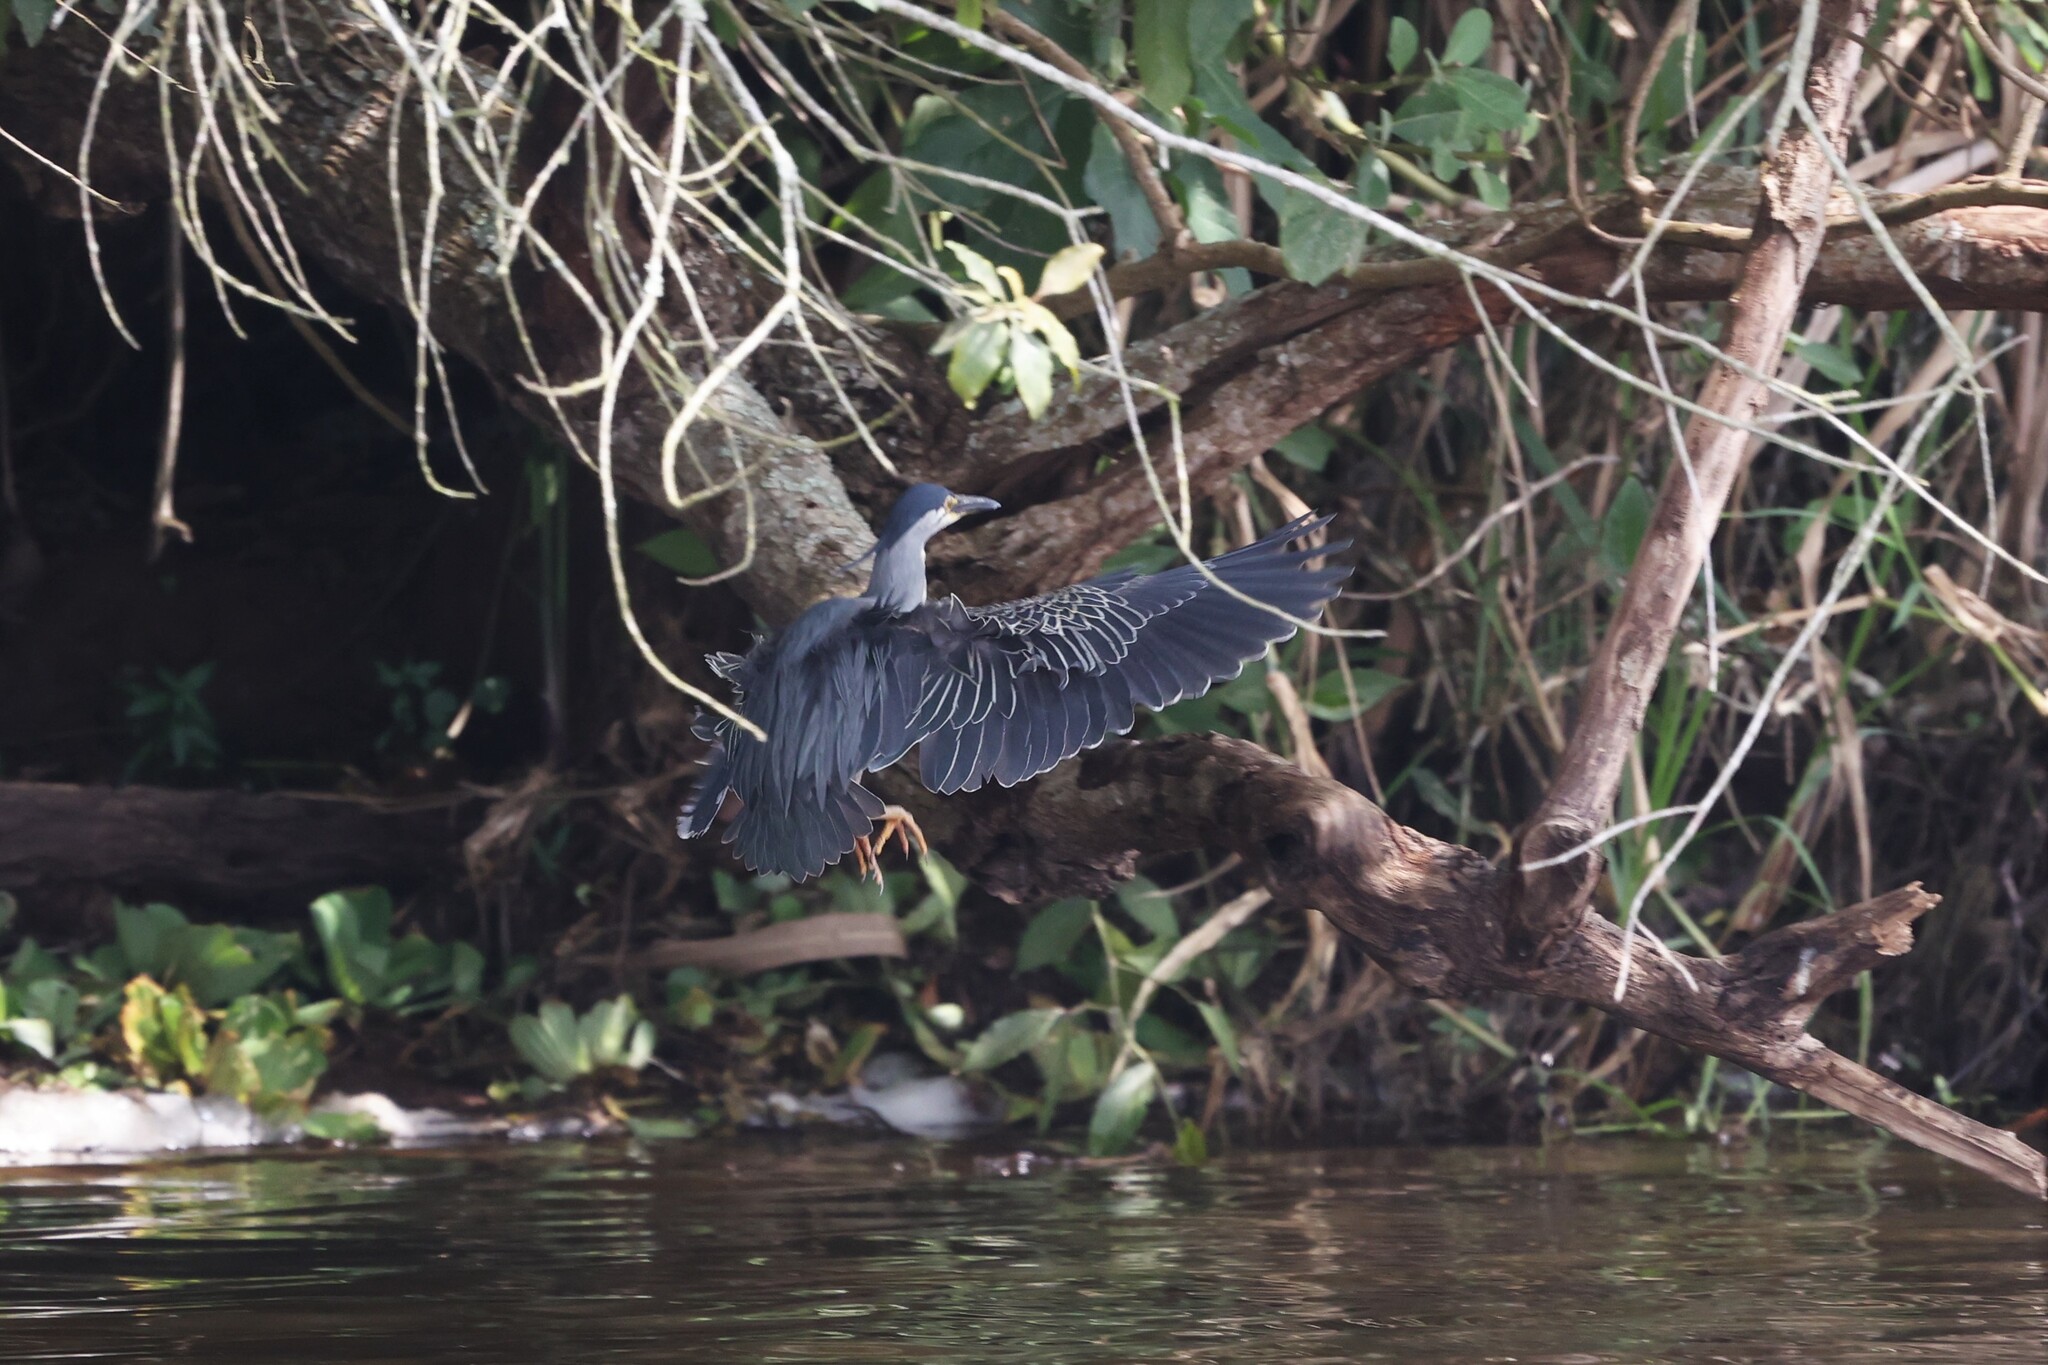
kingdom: Animalia
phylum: Chordata
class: Aves
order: Pelecaniformes
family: Ardeidae
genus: Butorides
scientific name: Butorides striata
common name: Striated heron
